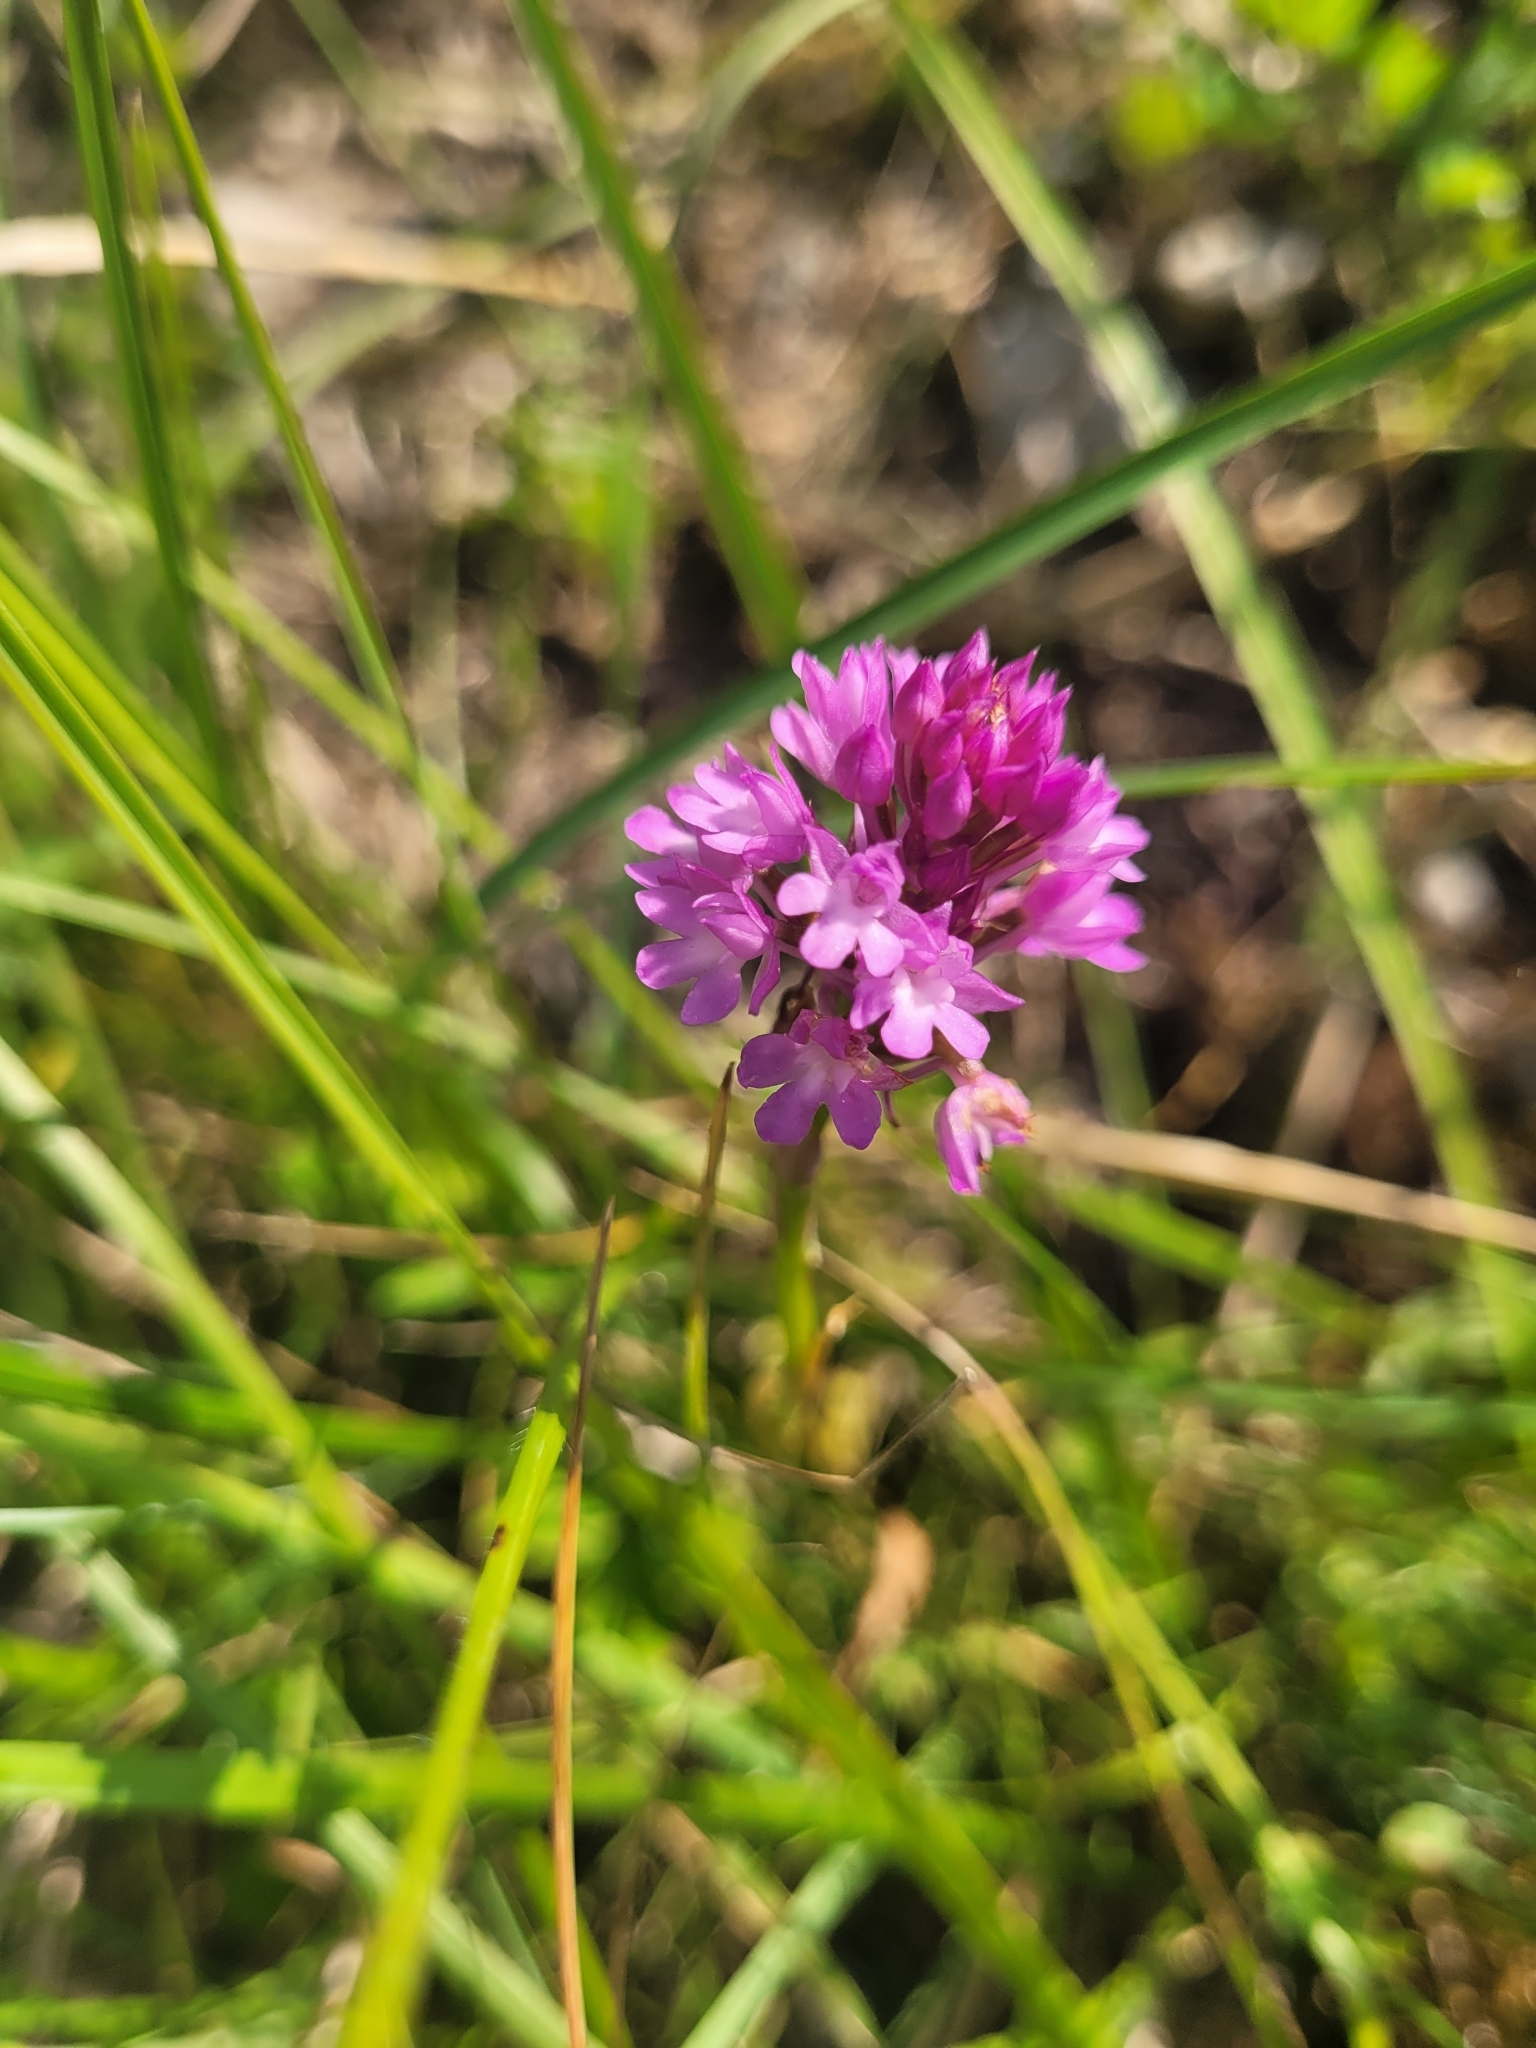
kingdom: Plantae
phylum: Tracheophyta
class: Liliopsida
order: Asparagales
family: Orchidaceae
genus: Anacamptis
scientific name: Anacamptis pyramidalis
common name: Pyramidal orchid
